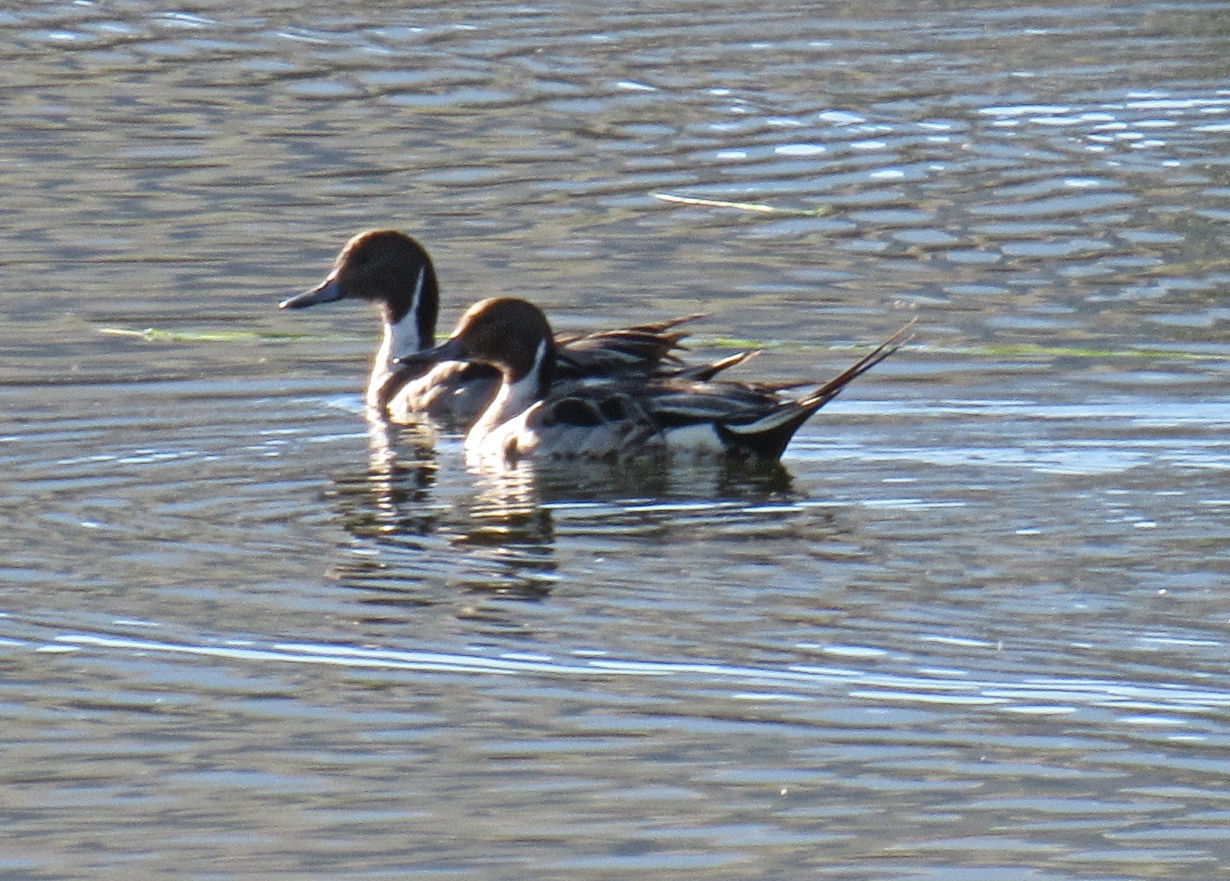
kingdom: Animalia
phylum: Chordata
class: Aves
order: Anseriformes
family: Anatidae
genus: Anas
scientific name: Anas acuta
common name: Northern pintail
